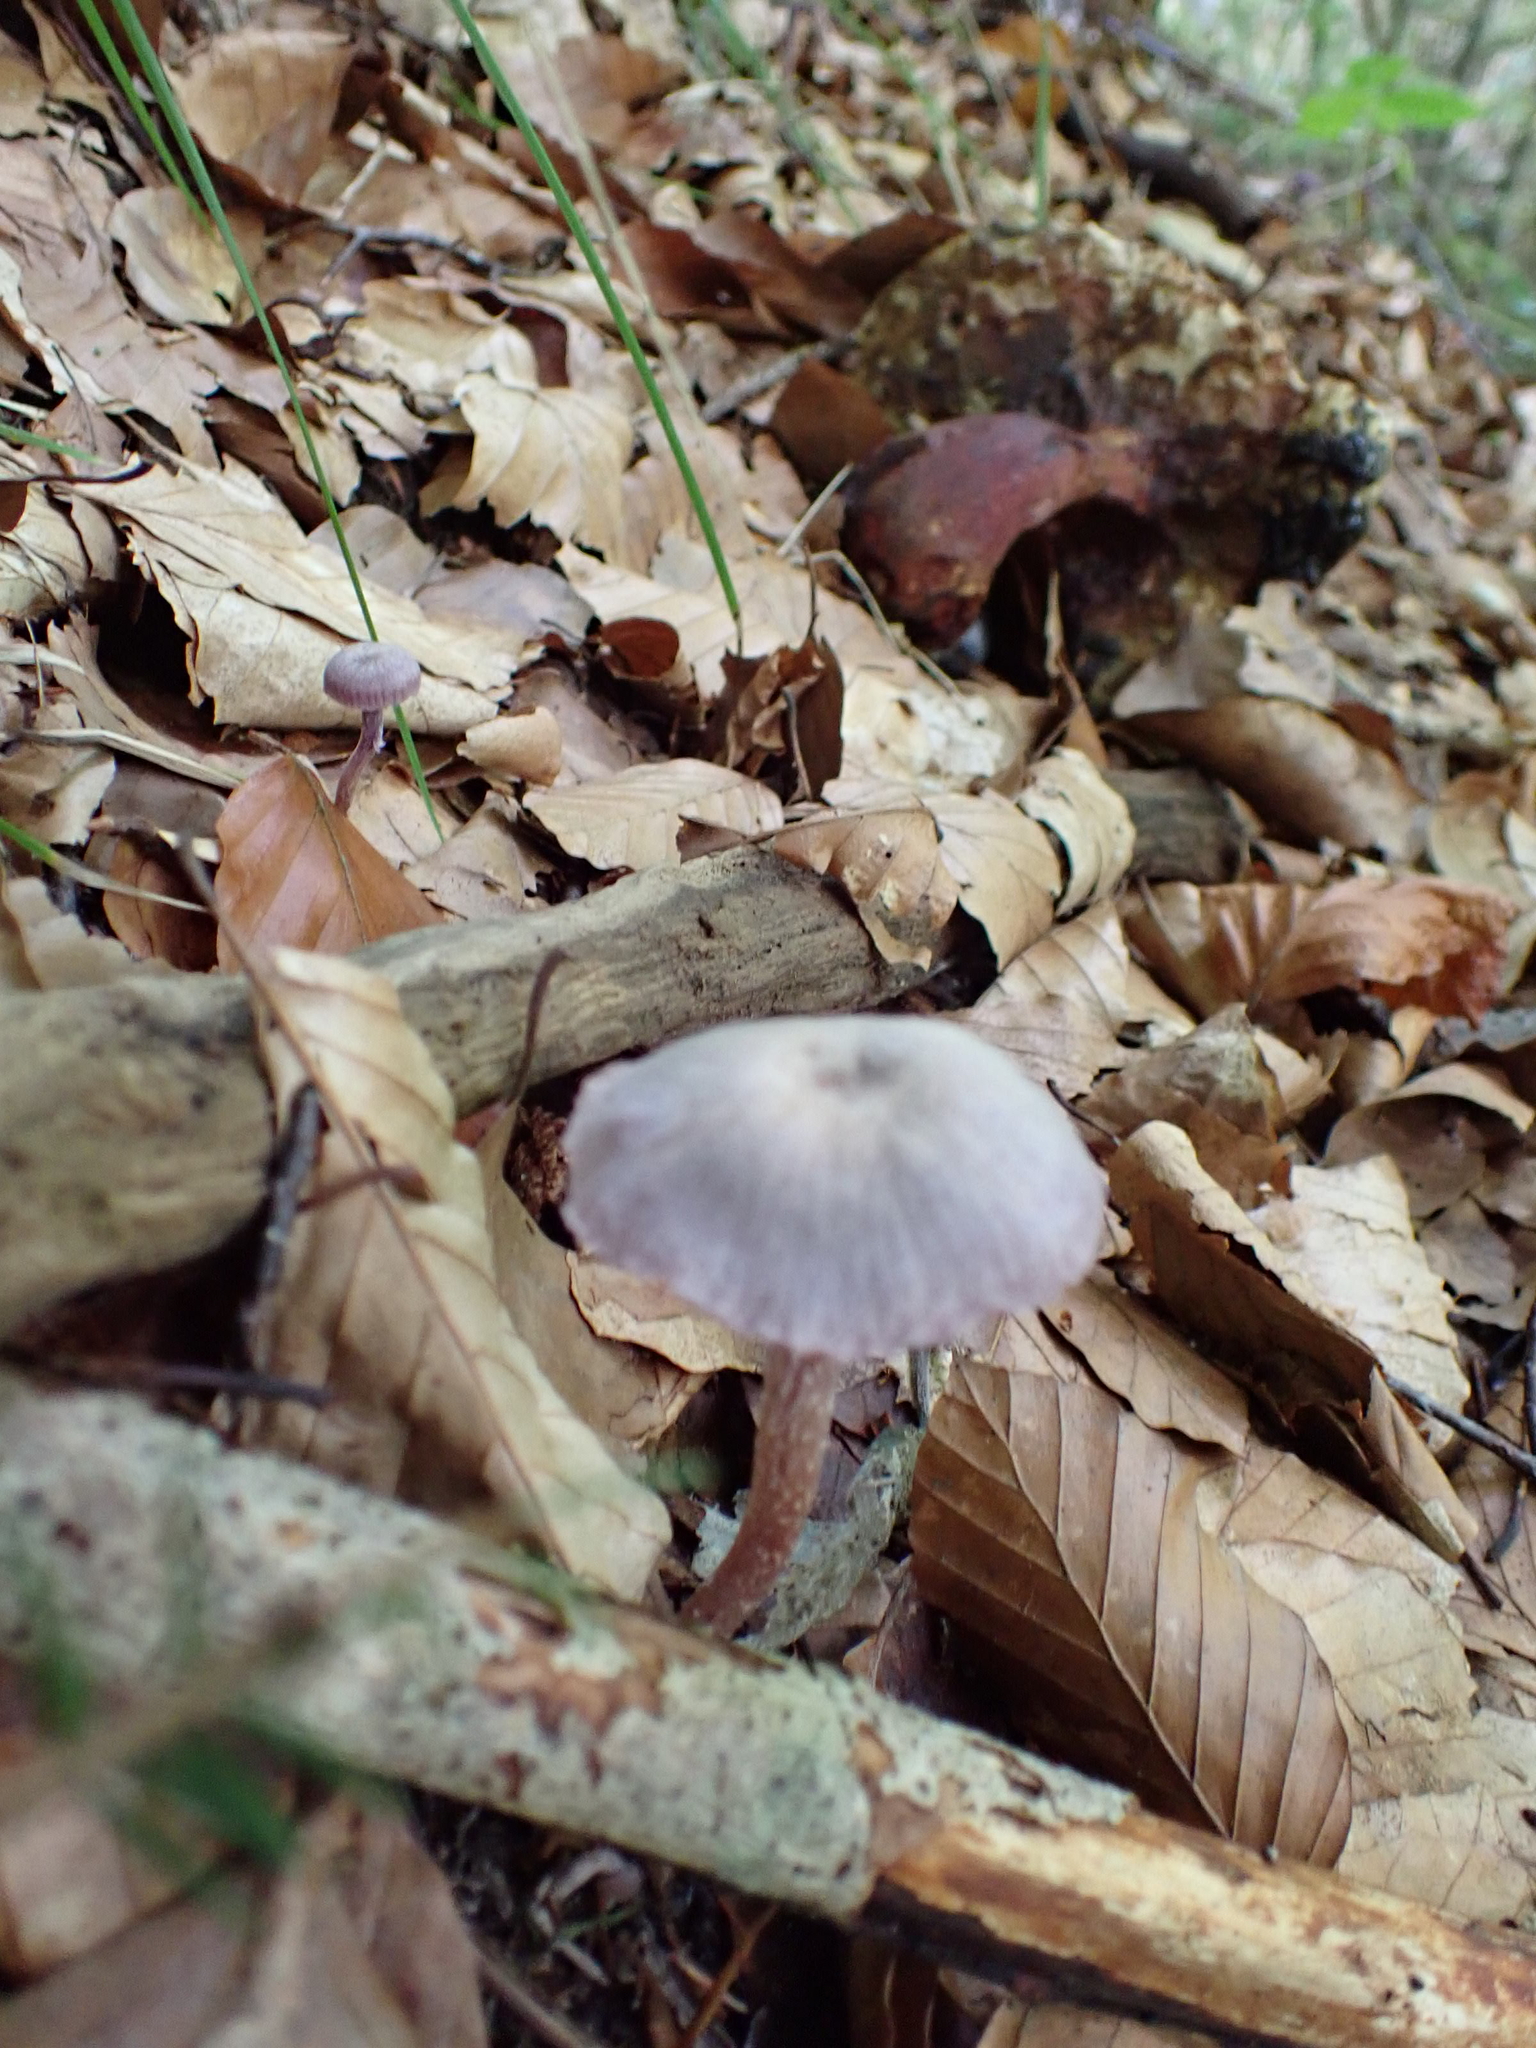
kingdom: Fungi
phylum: Basidiomycota
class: Agaricomycetes
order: Agaricales
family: Hydnangiaceae
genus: Laccaria
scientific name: Laccaria amethystina
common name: Amethyst deceiver
